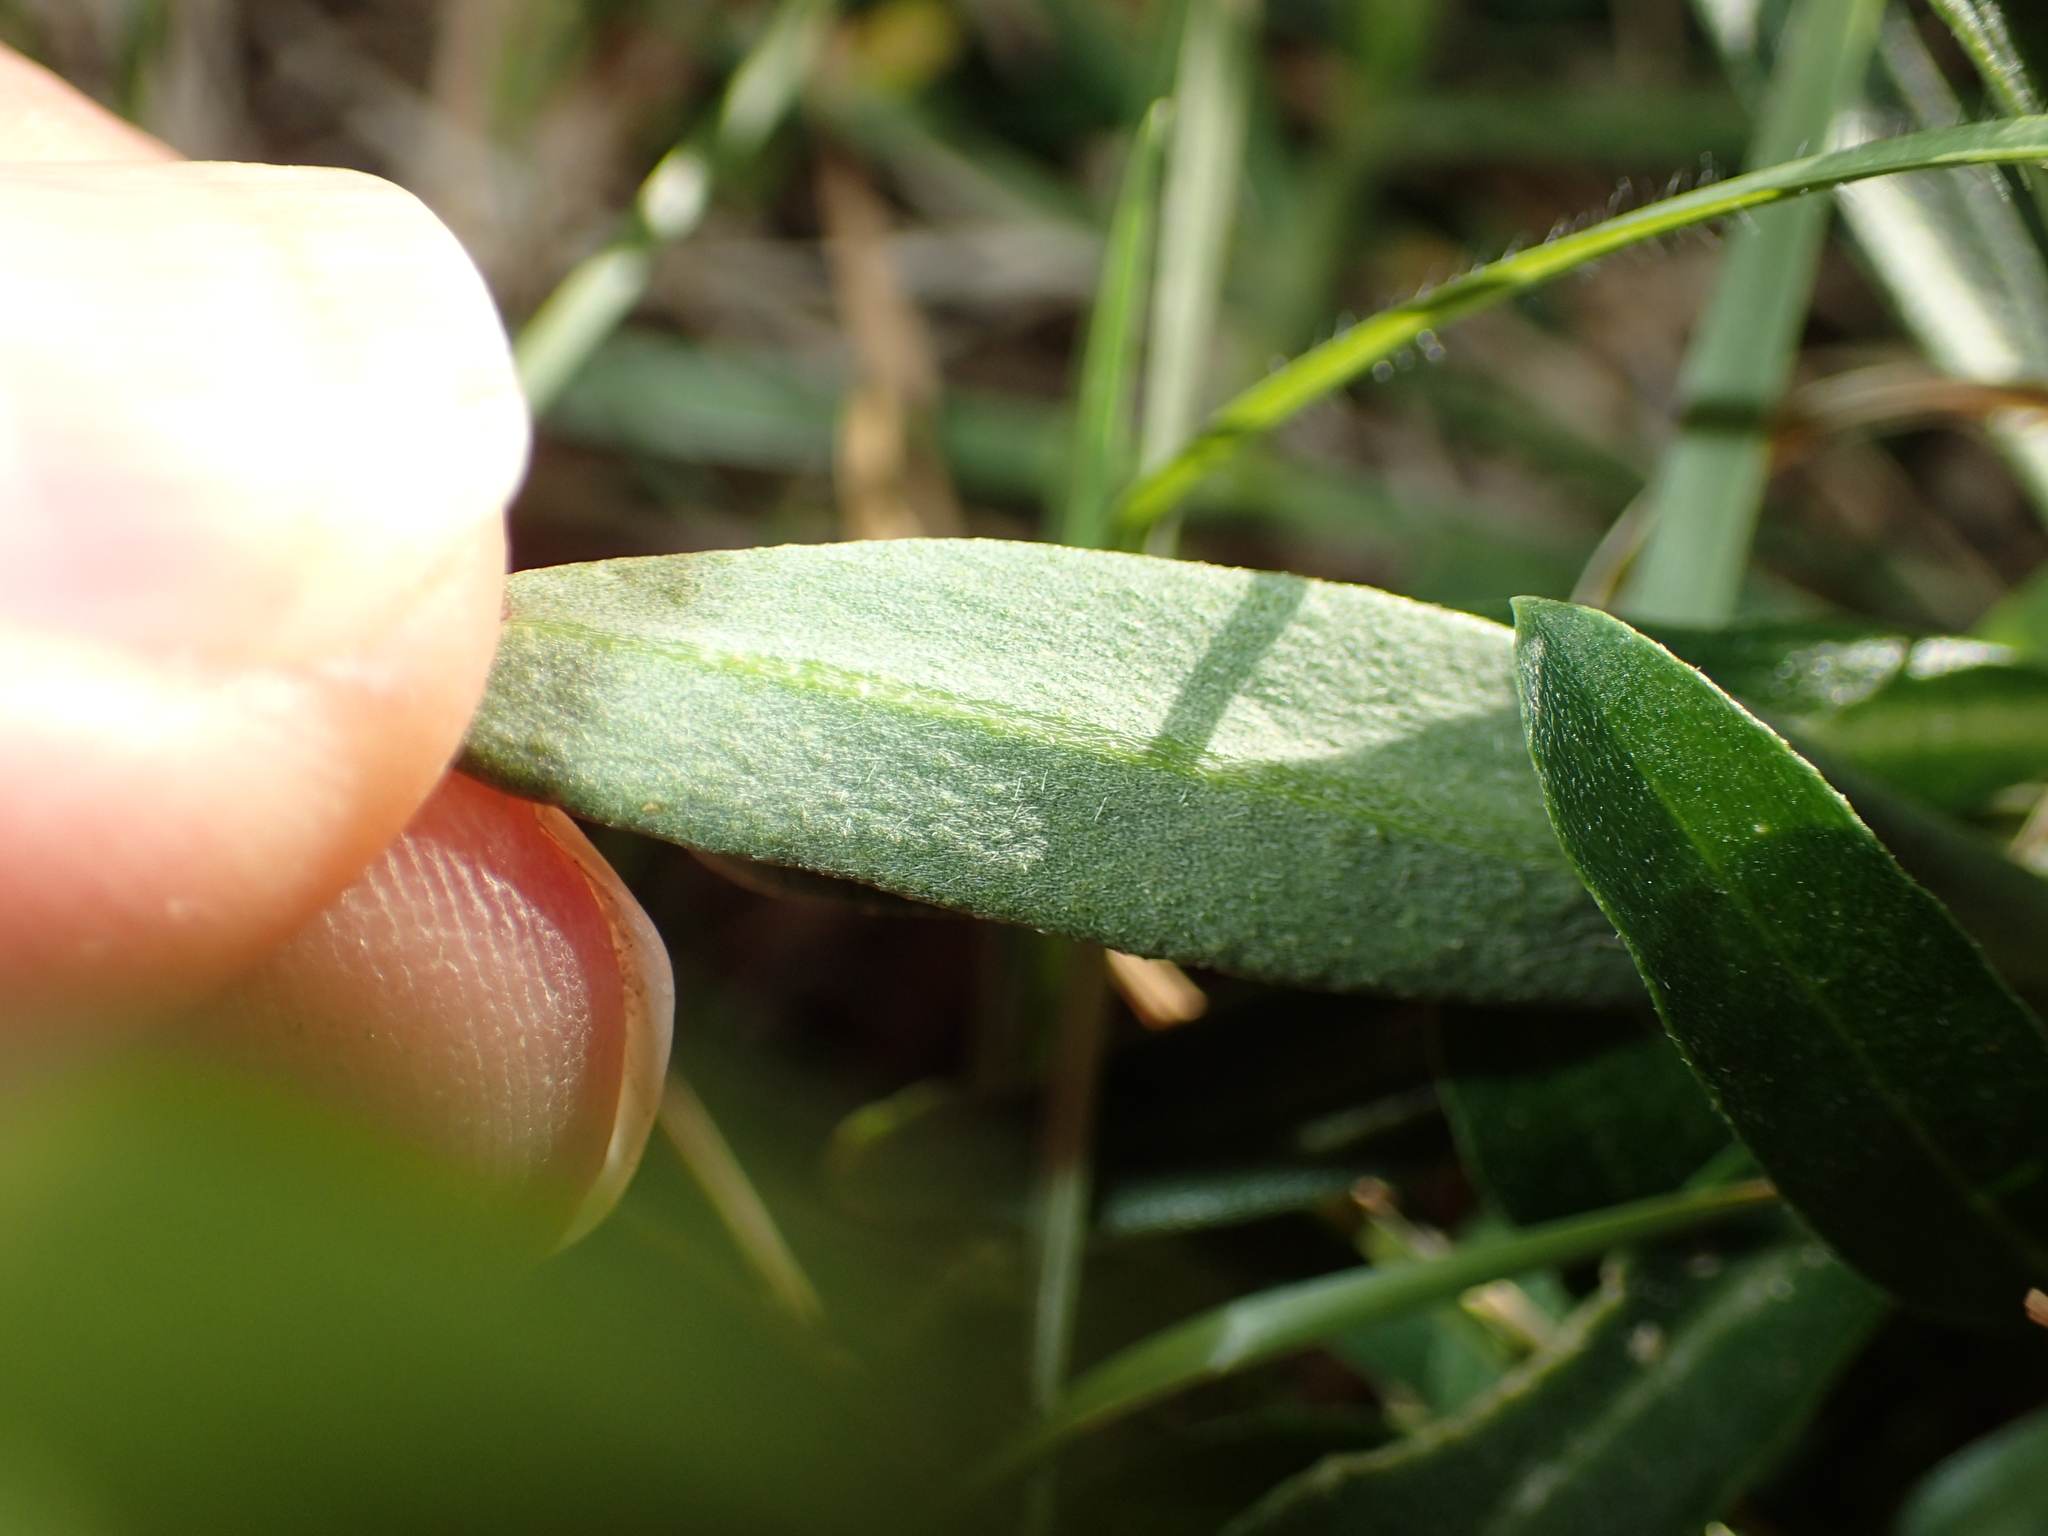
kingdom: Plantae
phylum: Tracheophyta
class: Magnoliopsida
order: Brassicales
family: Brassicaceae
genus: Erysimum
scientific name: Erysimum cheiri
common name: Wallflower
